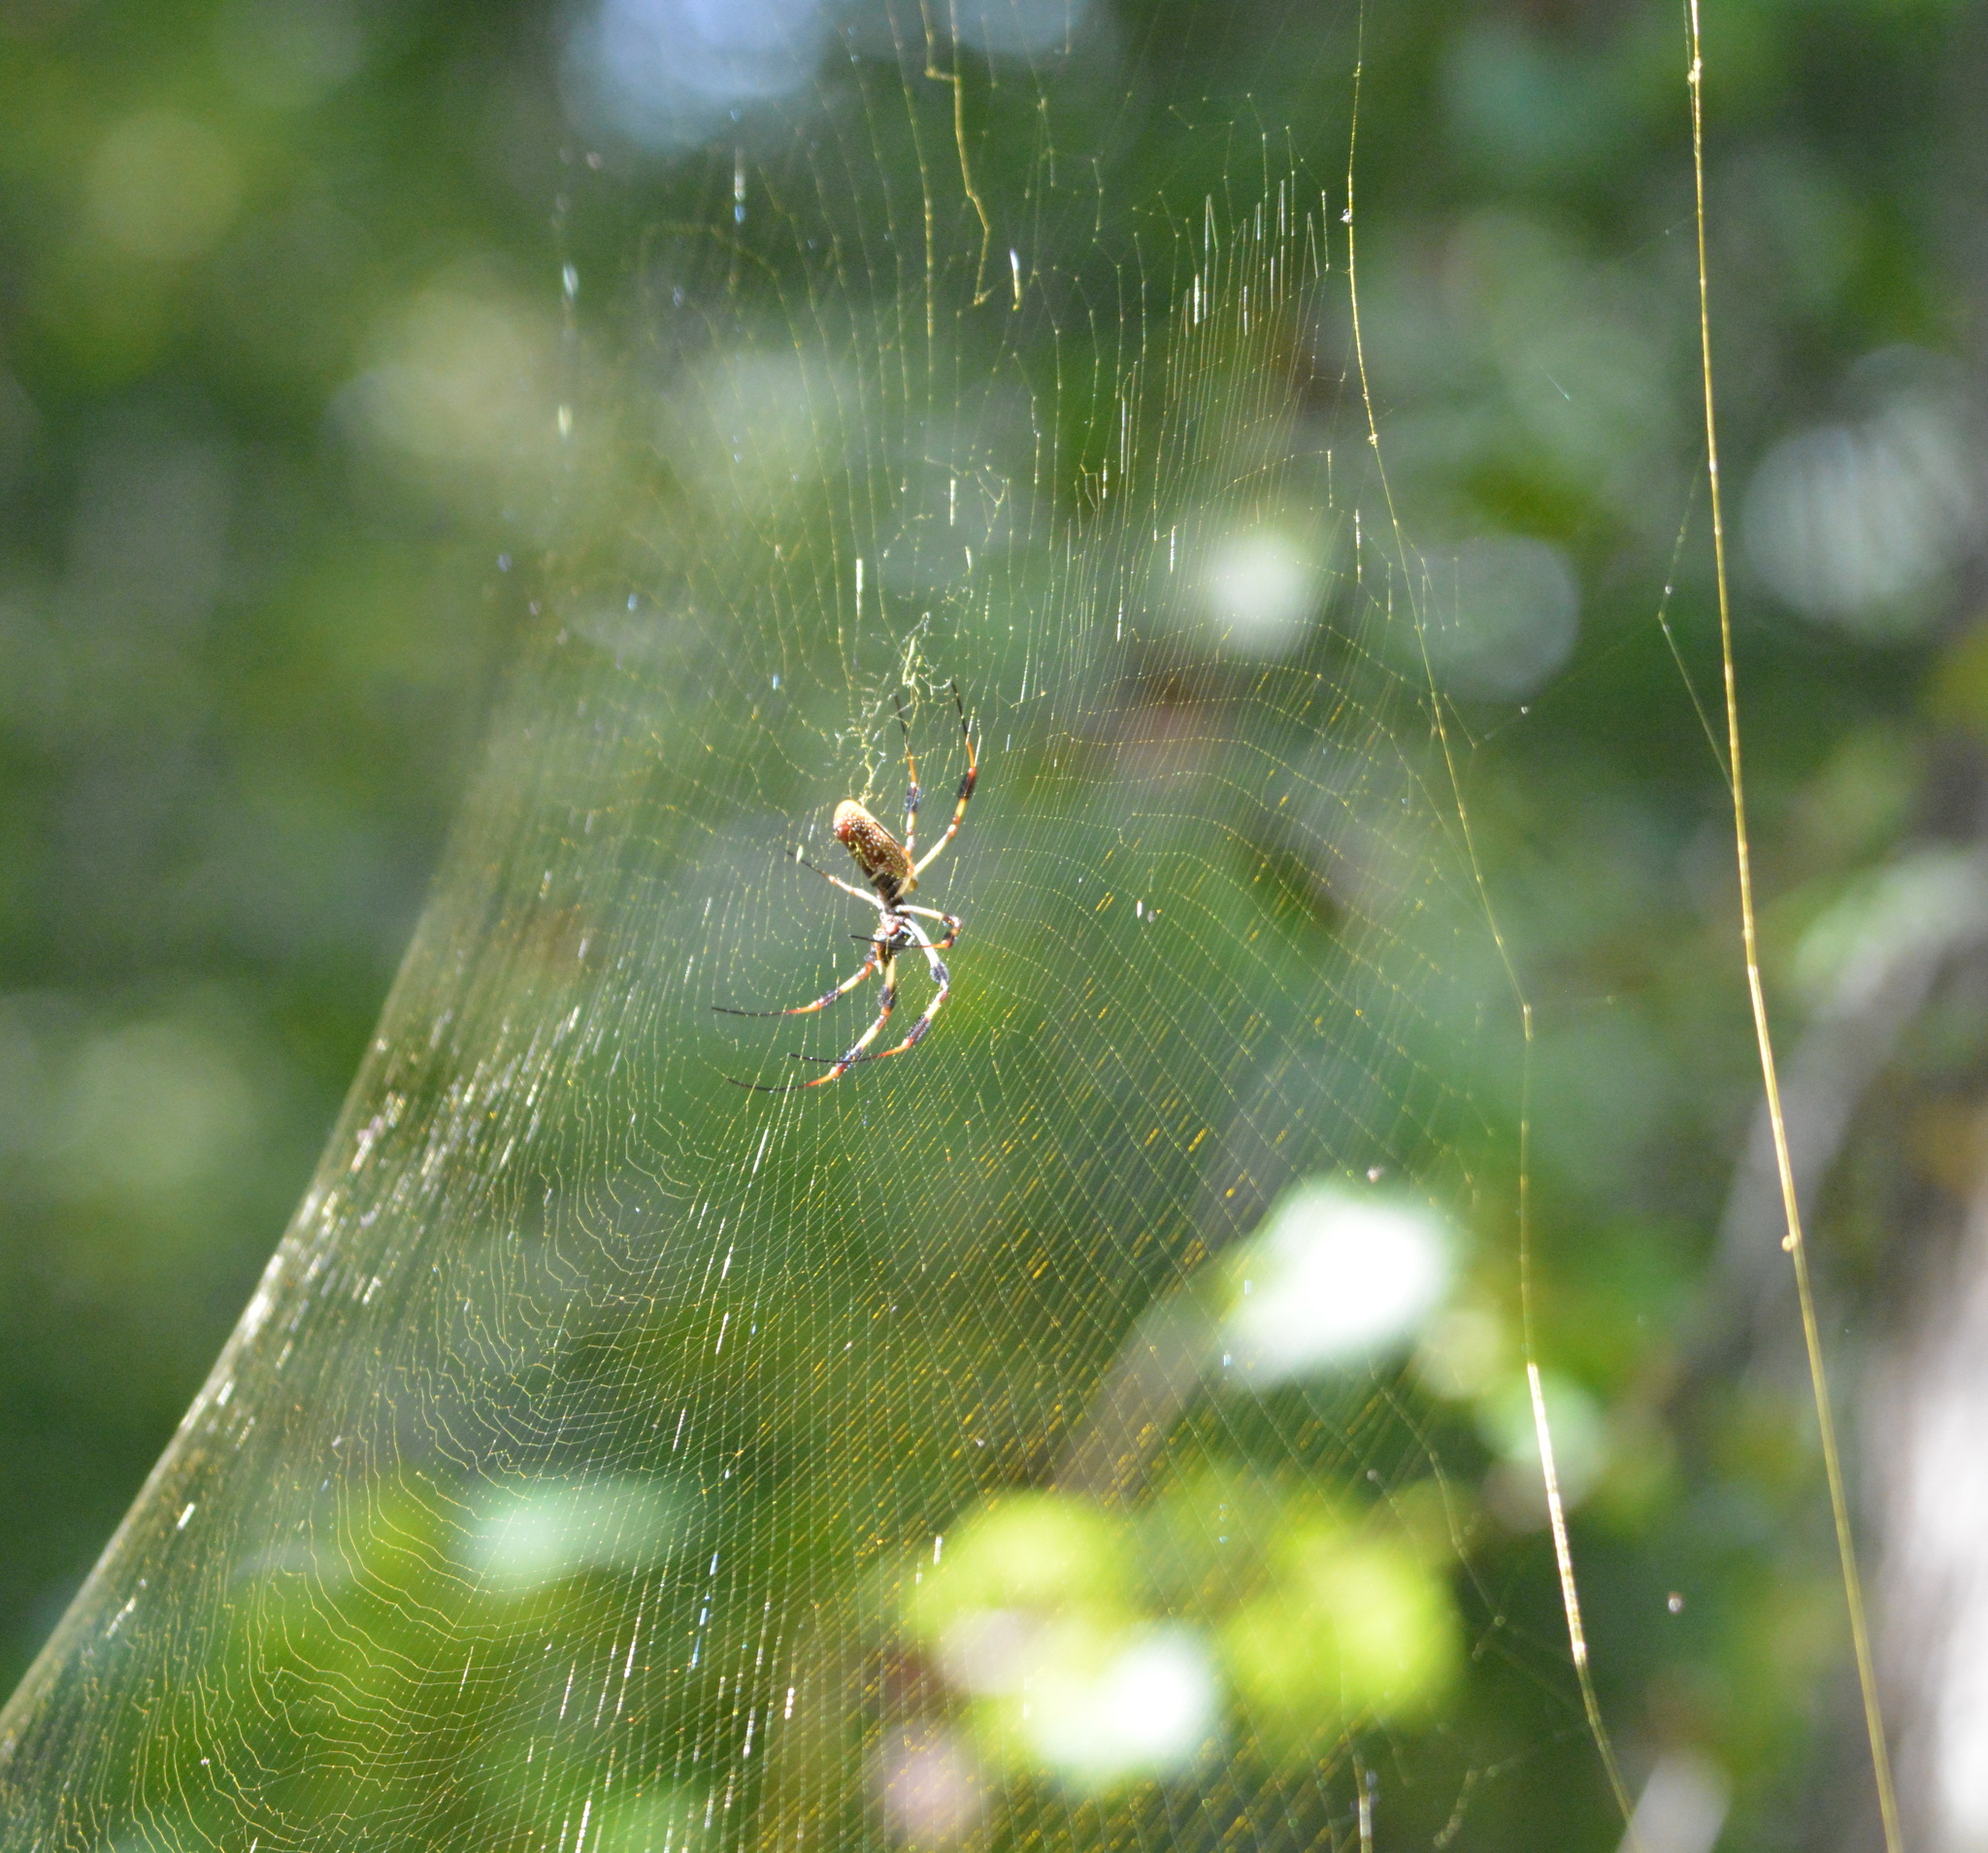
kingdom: Animalia
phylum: Arthropoda
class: Arachnida
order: Araneae
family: Araneidae
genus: Trichonephila
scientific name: Trichonephila clavipes
